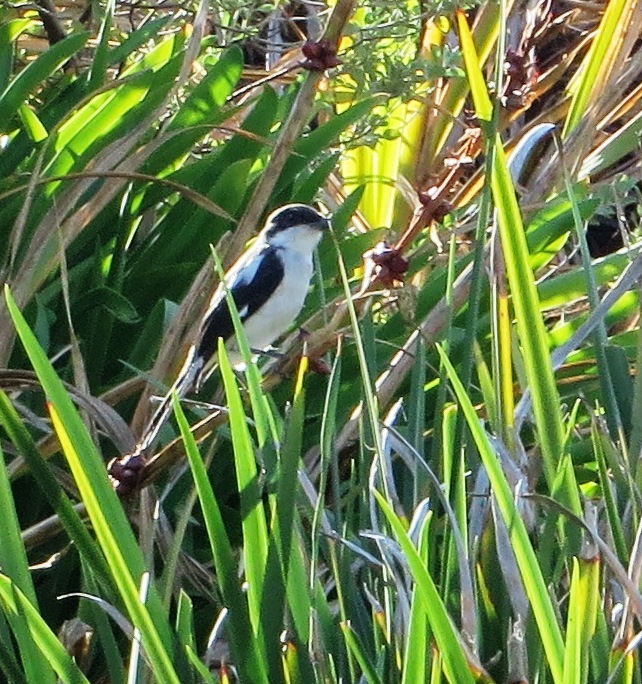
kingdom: Animalia
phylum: Chordata
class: Aves
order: Passeriformes
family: Laniidae
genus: Lanius
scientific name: Lanius collaris
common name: Southern fiscal
